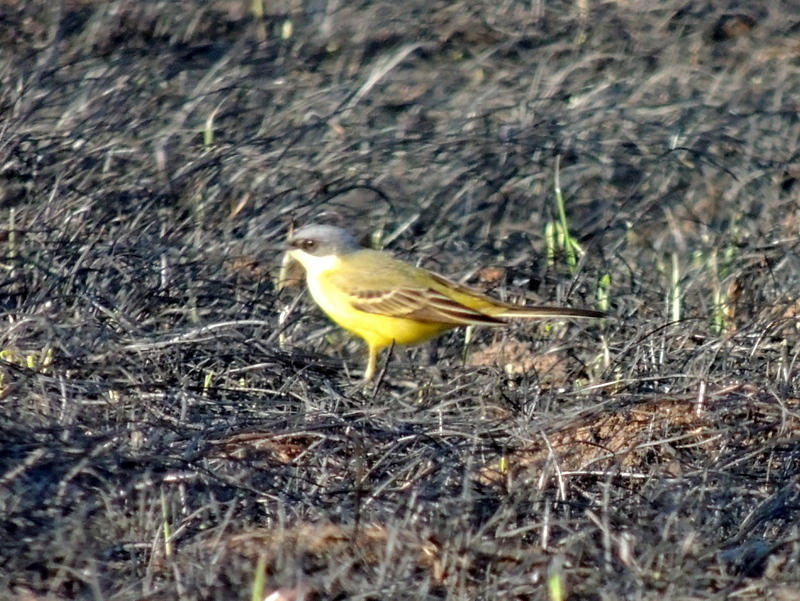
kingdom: Animalia
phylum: Chordata
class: Aves
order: Passeriformes
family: Motacillidae
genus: Motacilla
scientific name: Motacilla flava
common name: Western yellow wagtail
